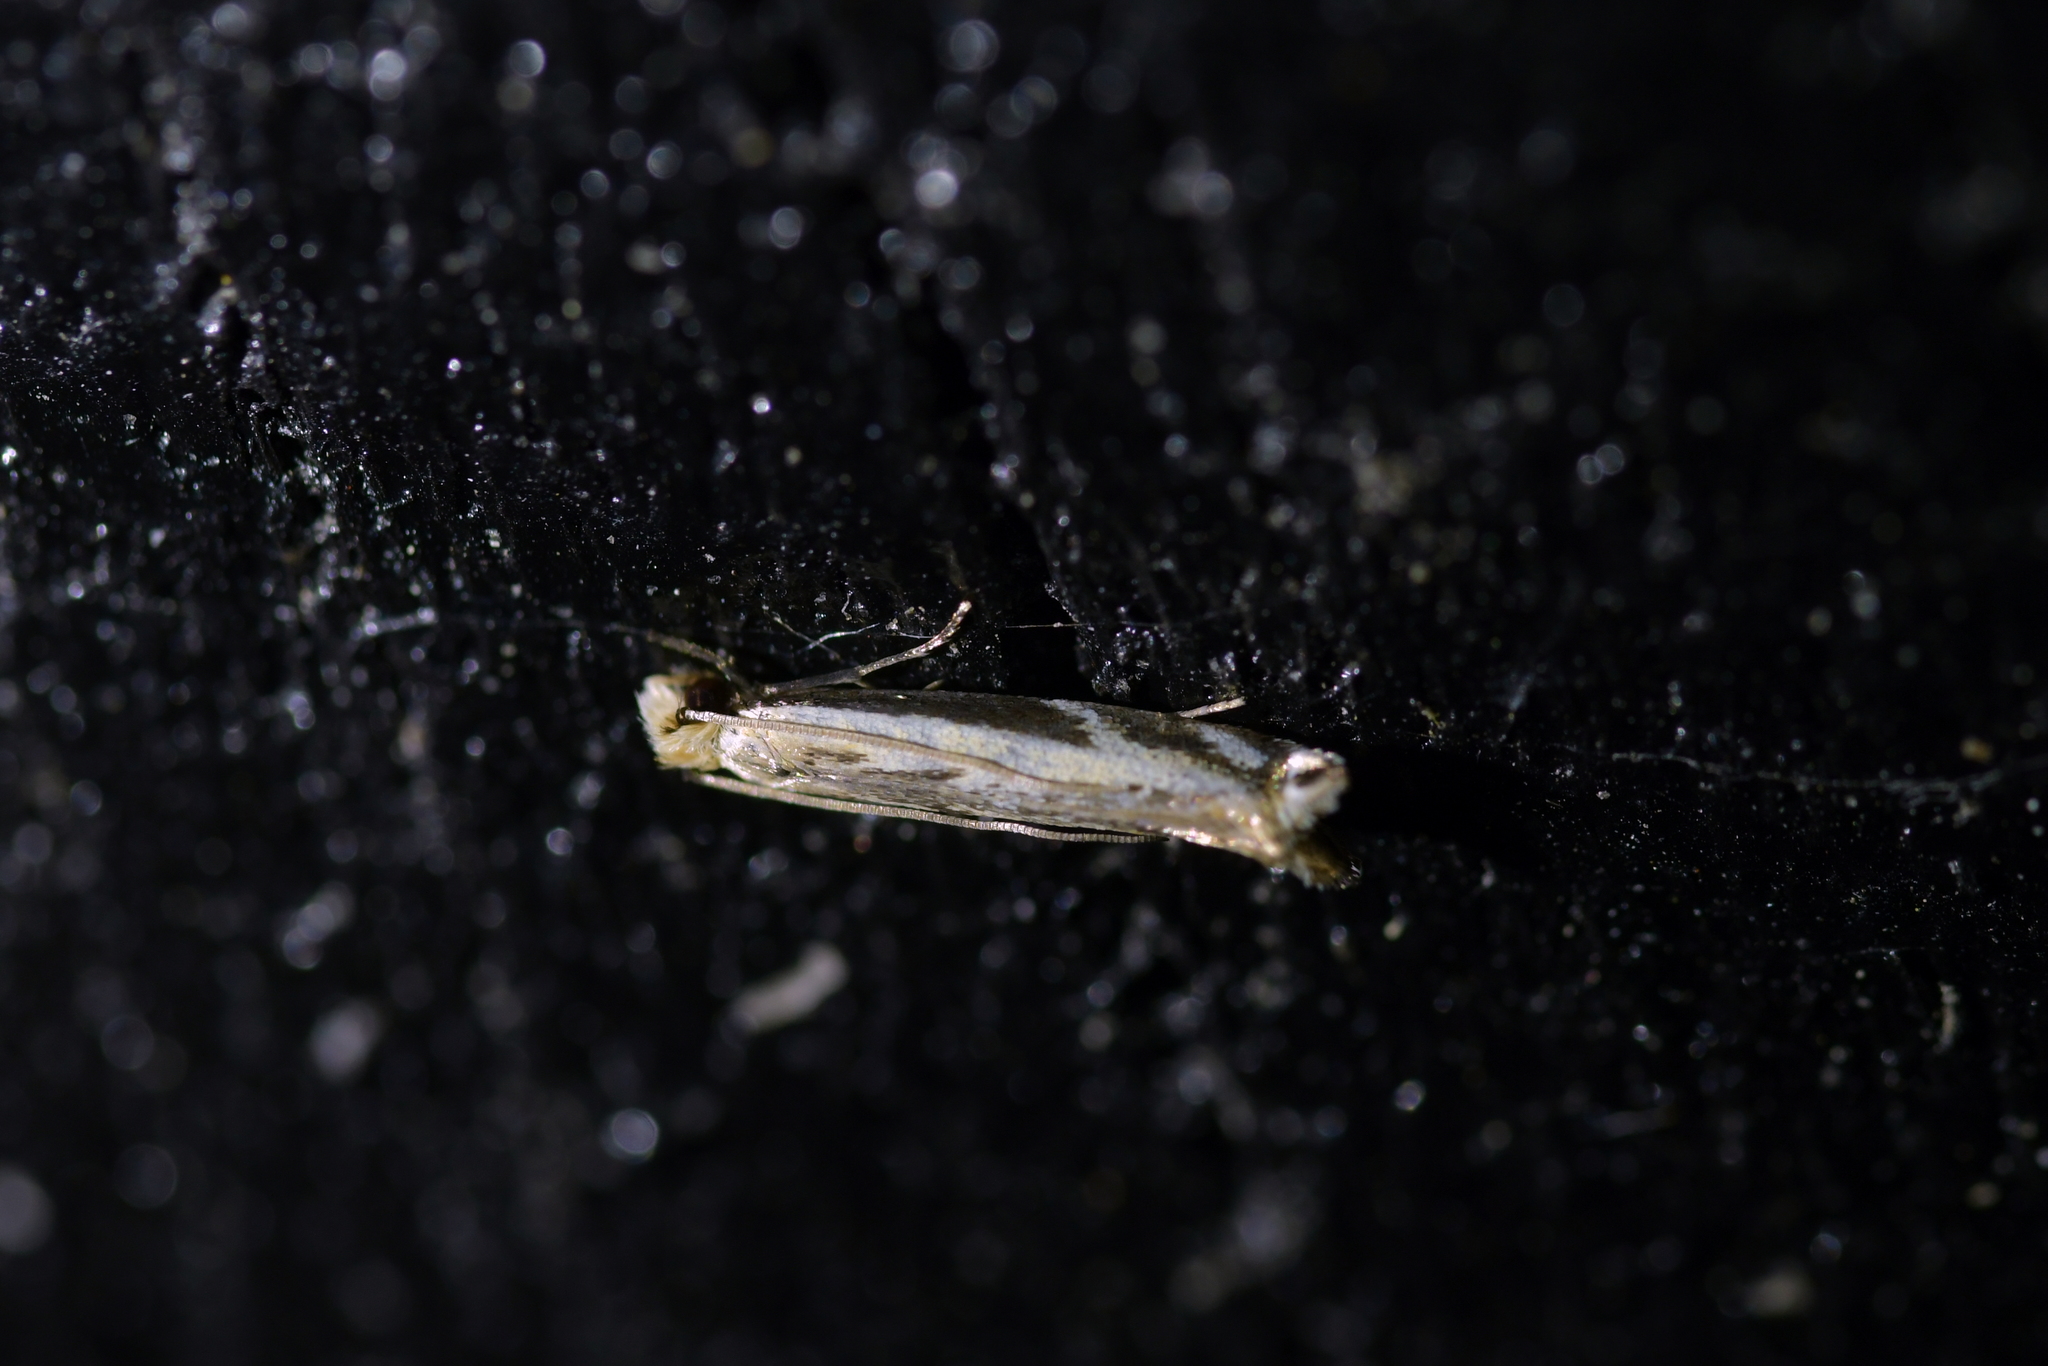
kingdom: Animalia
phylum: Arthropoda
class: Insecta
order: Lepidoptera
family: Tineidae
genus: Erechthias
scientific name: Erechthias terminella
